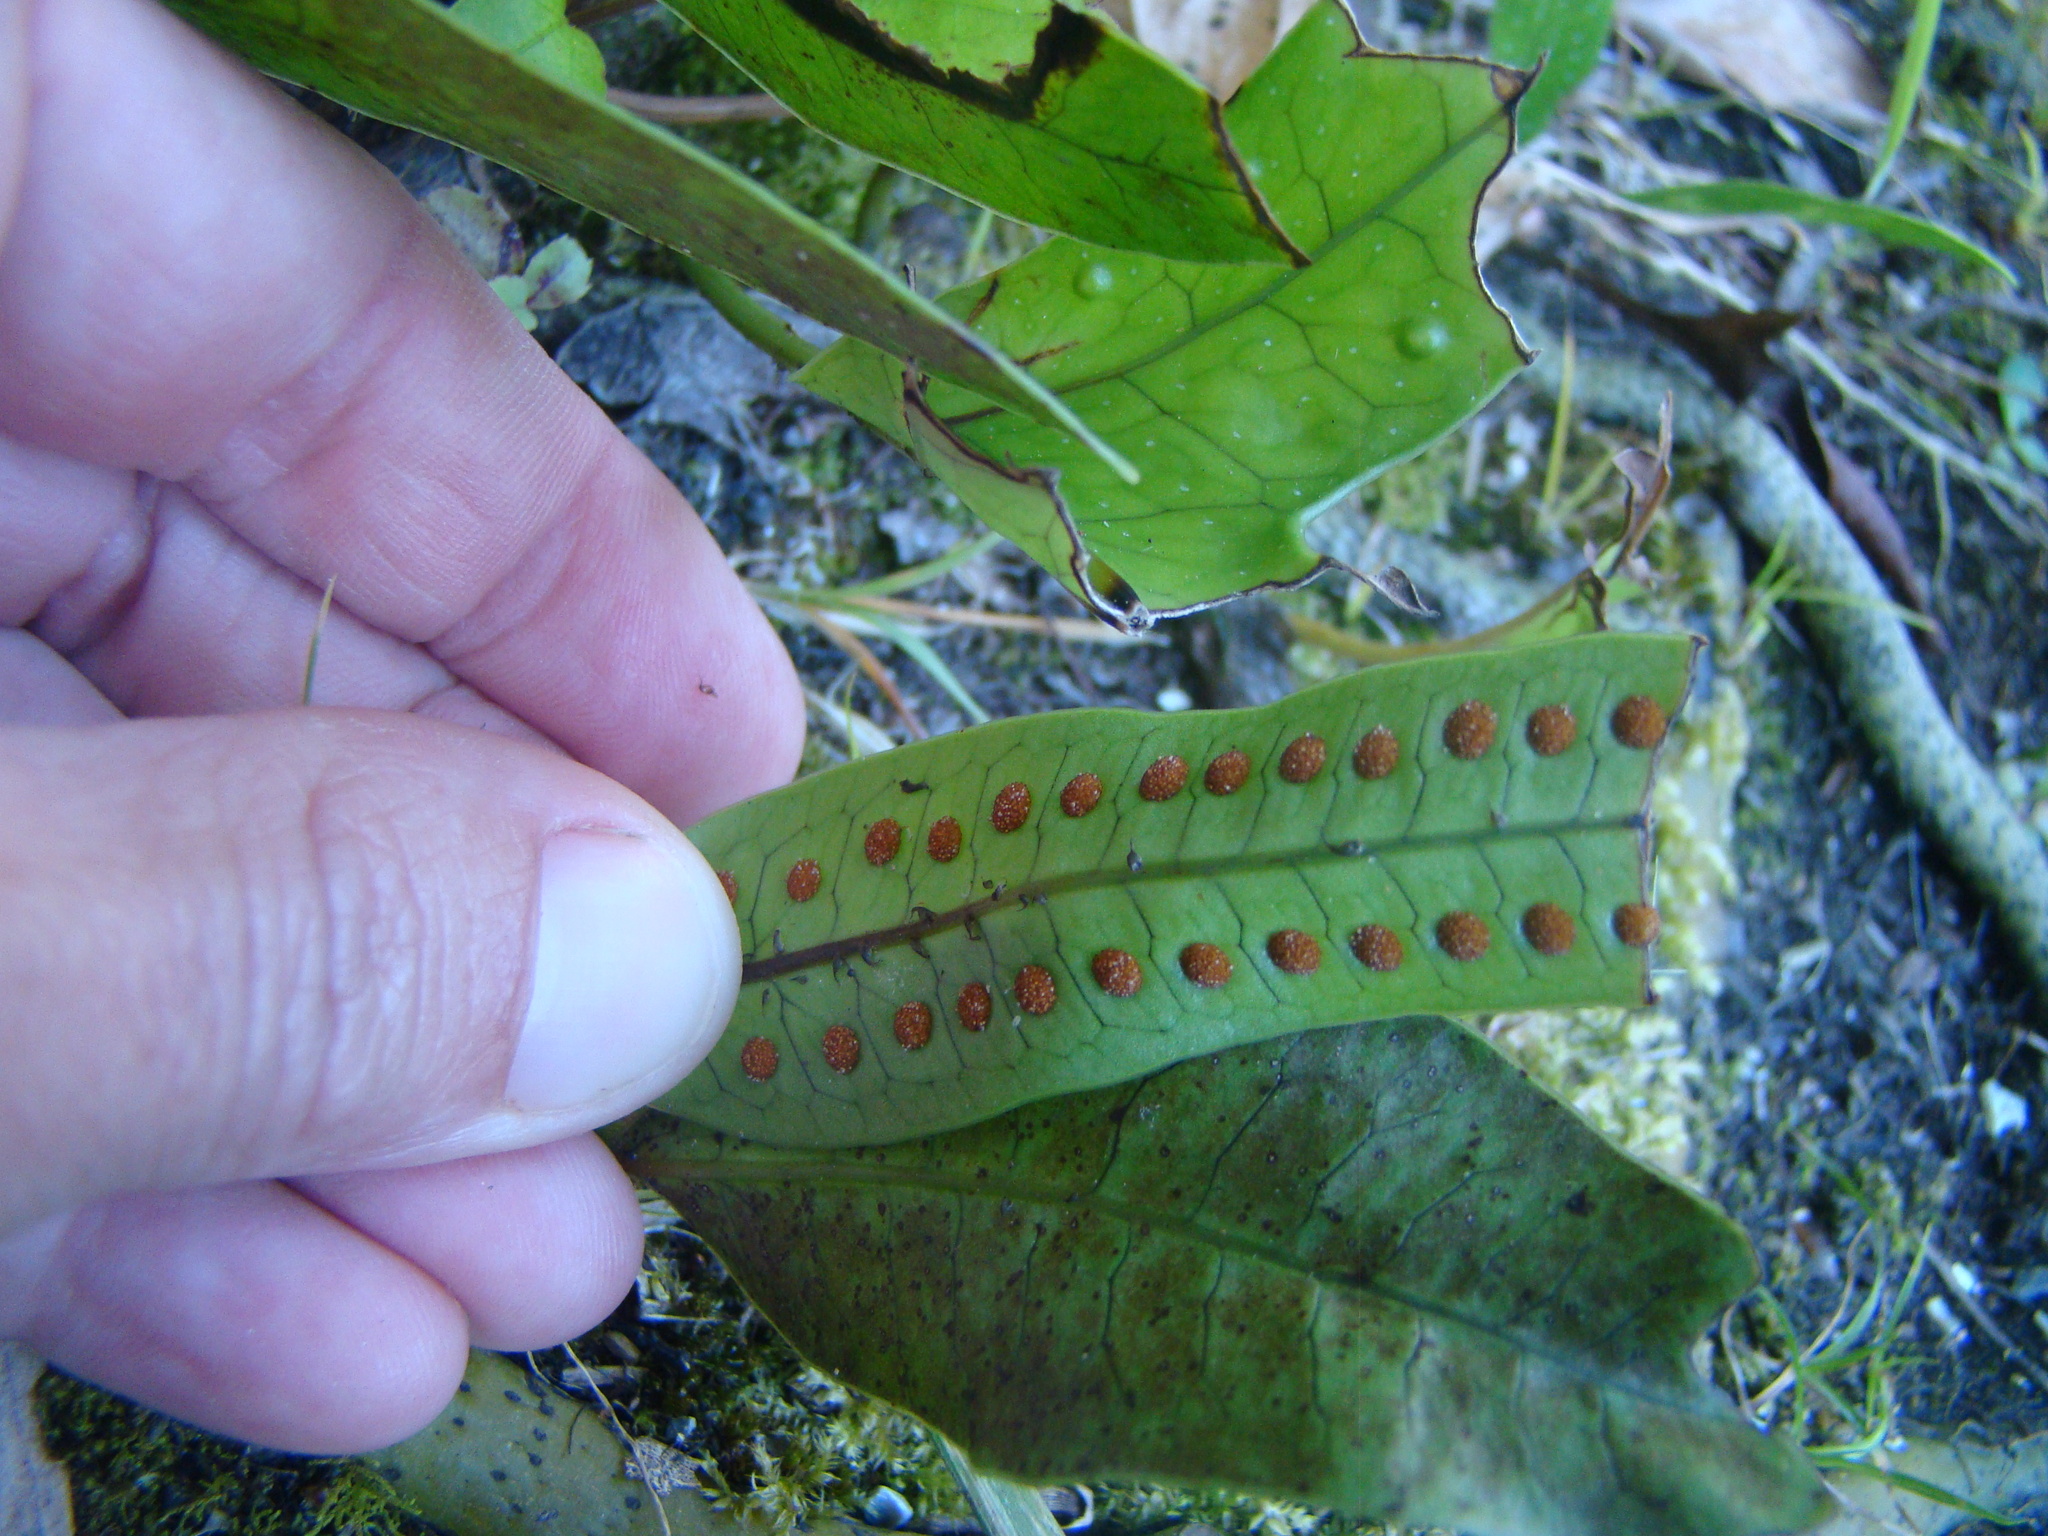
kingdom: Plantae
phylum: Tracheophyta
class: Polypodiopsida
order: Polypodiales
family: Polypodiaceae
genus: Lecanopteris
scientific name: Lecanopteris pustulata
